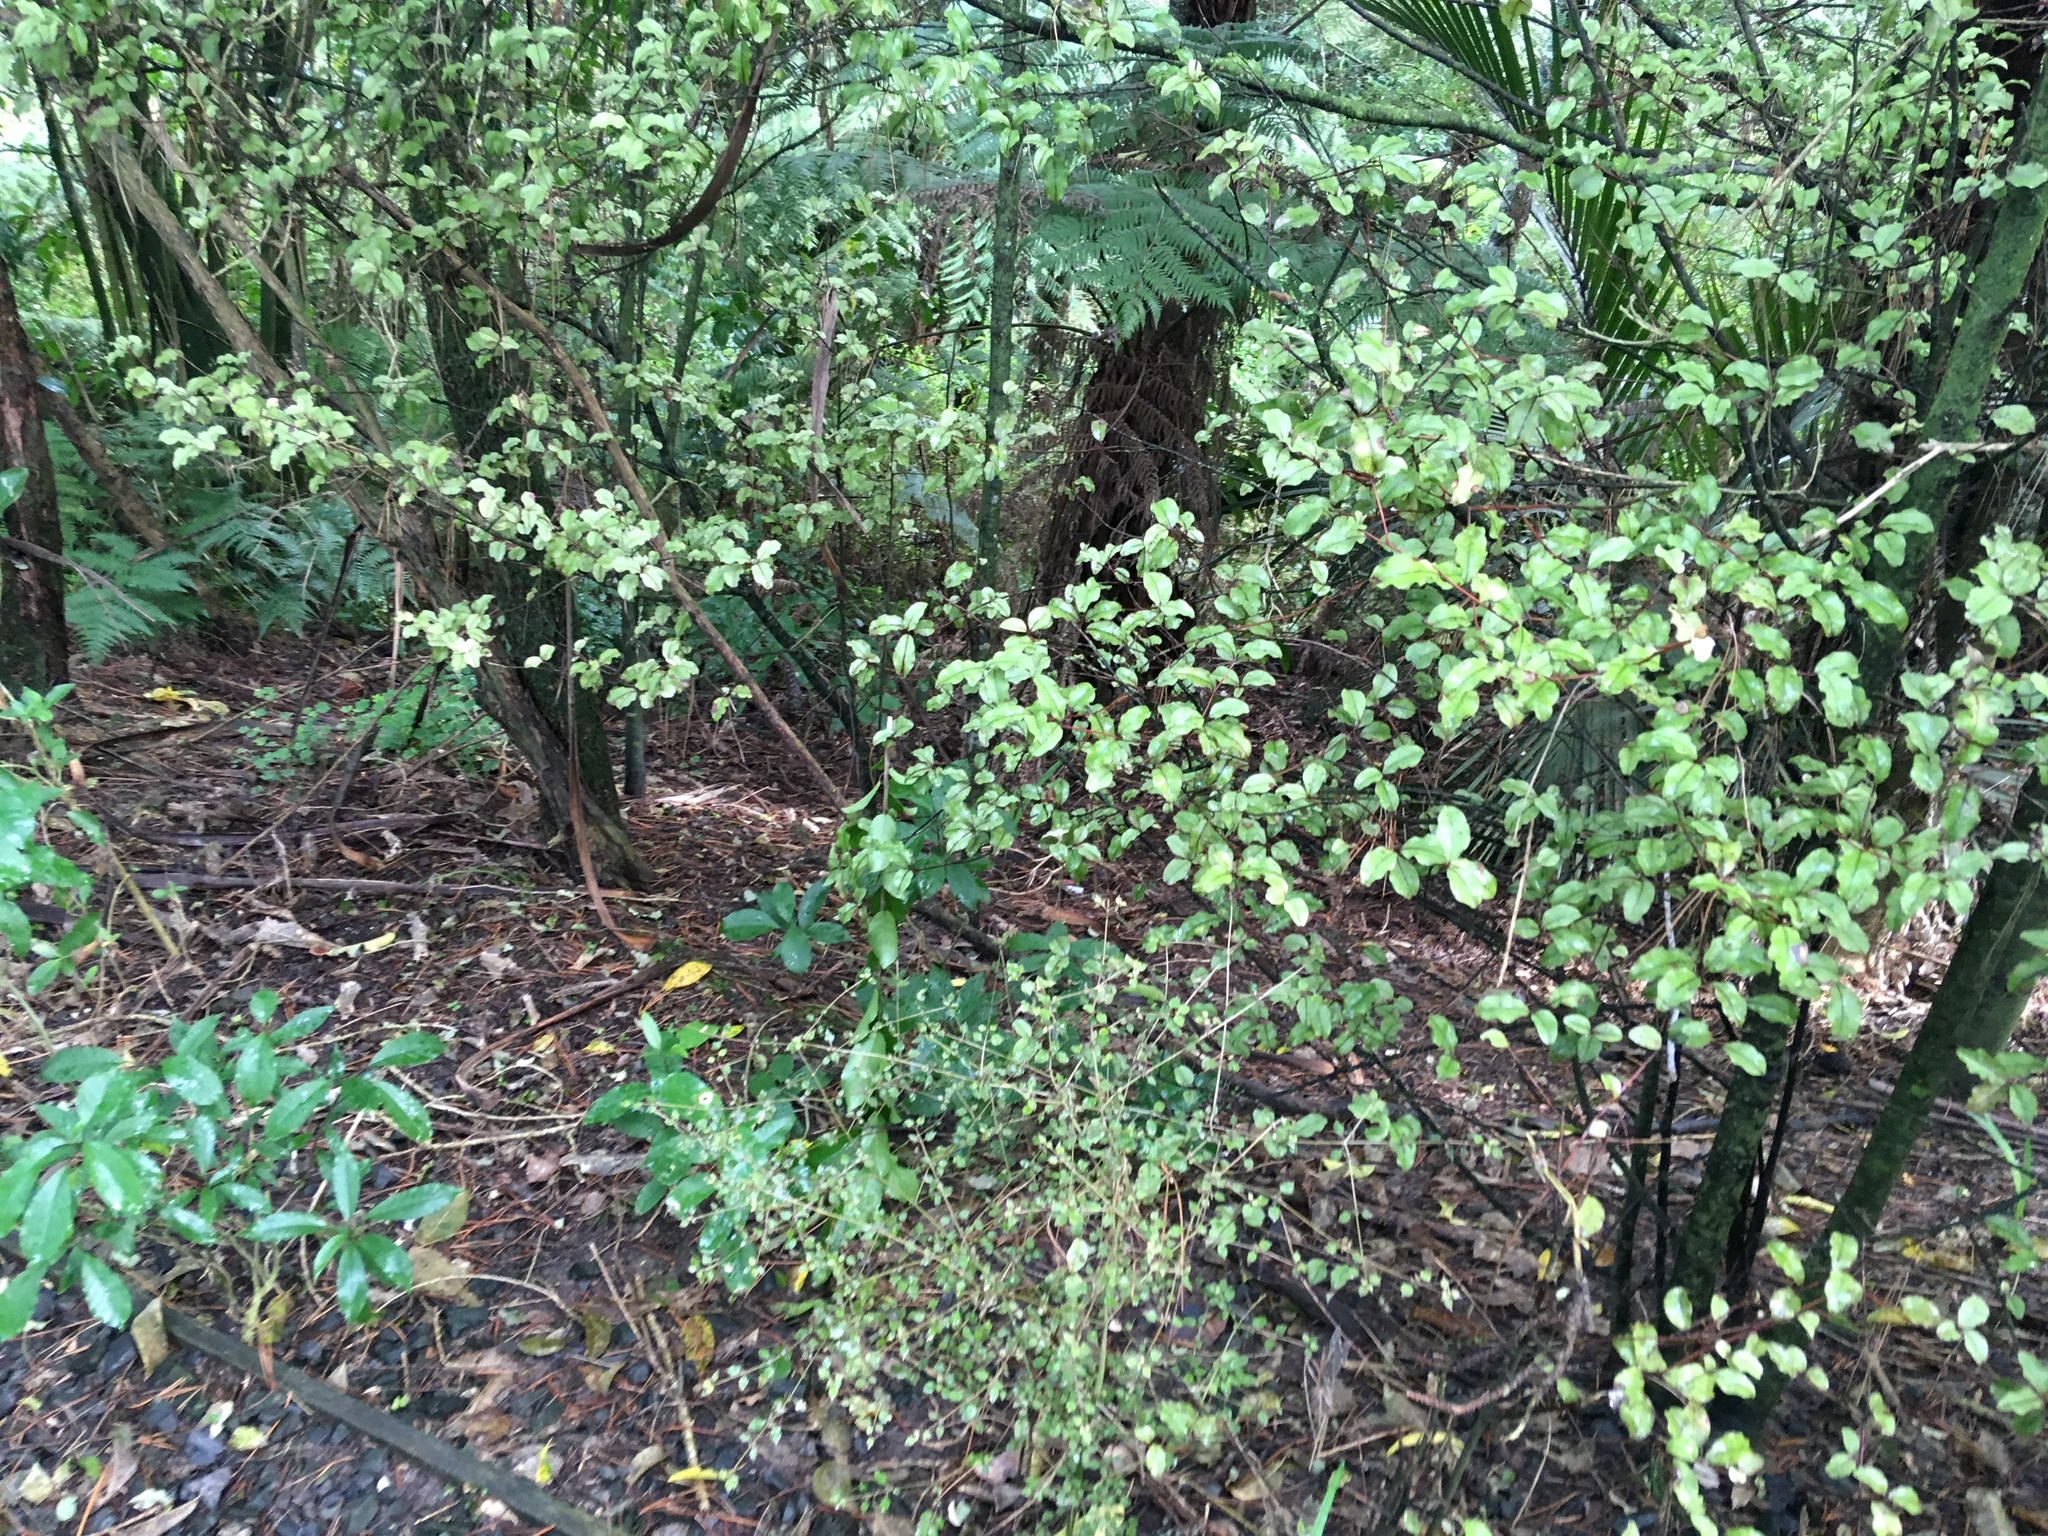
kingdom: Plantae
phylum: Tracheophyta
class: Magnoliopsida
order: Gentianales
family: Rubiaceae
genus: Coprosma
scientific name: Coprosma areolata
